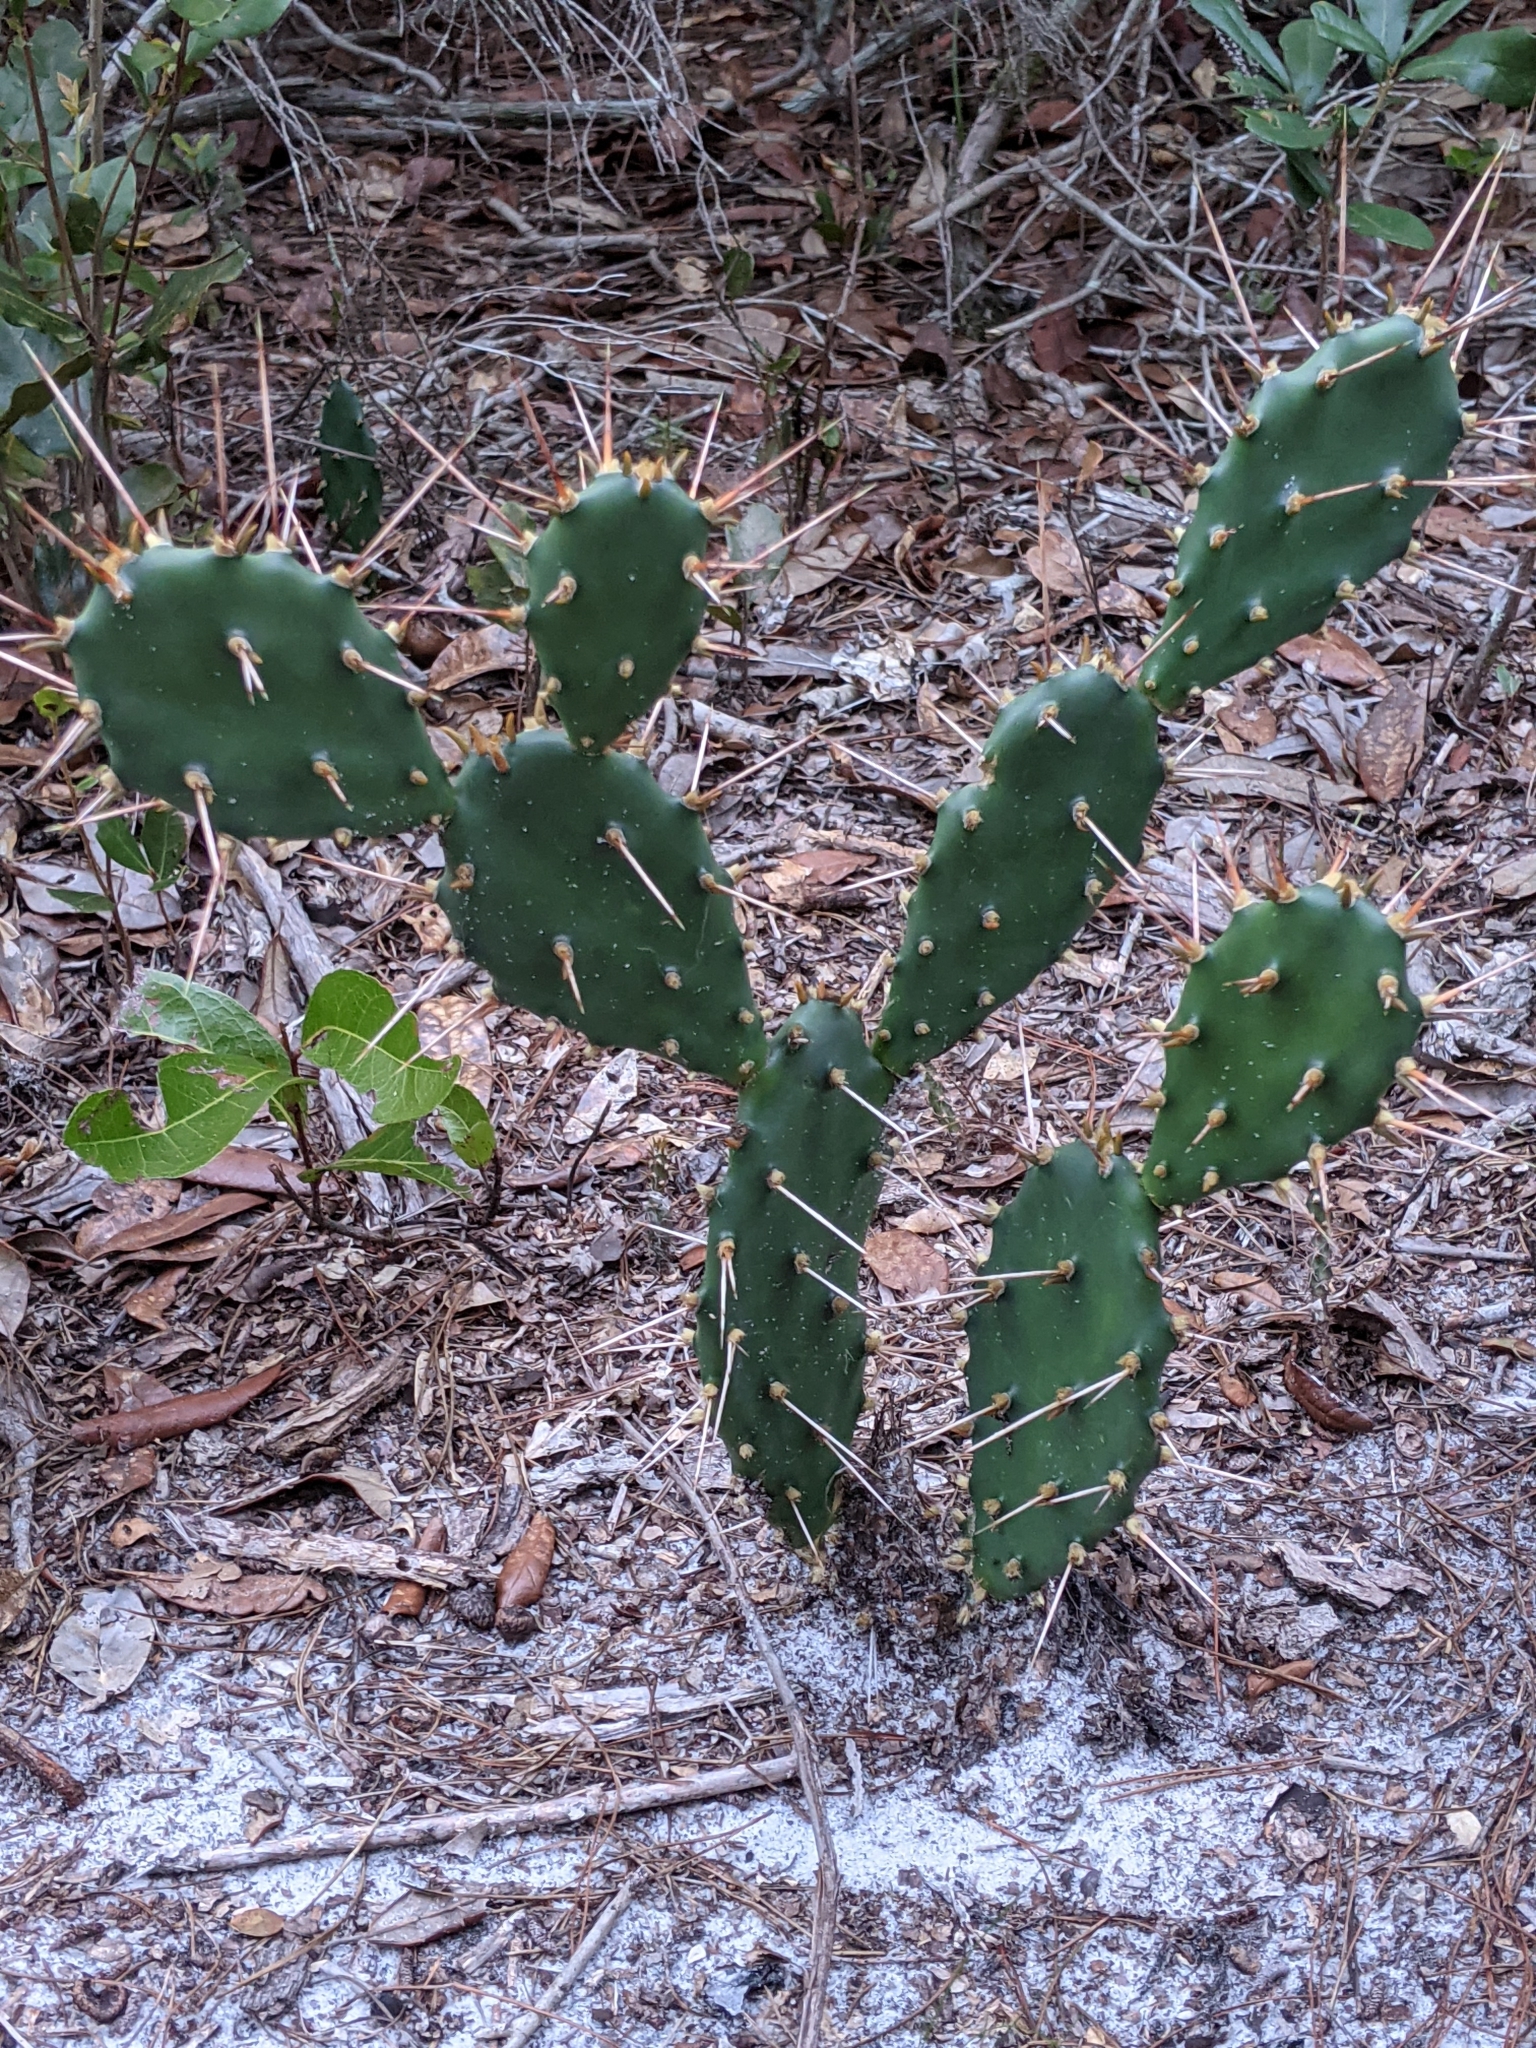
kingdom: Plantae
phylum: Tracheophyta
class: Magnoliopsida
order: Caryophyllales
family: Cactaceae
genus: Opuntia
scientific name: Opuntia austrina
